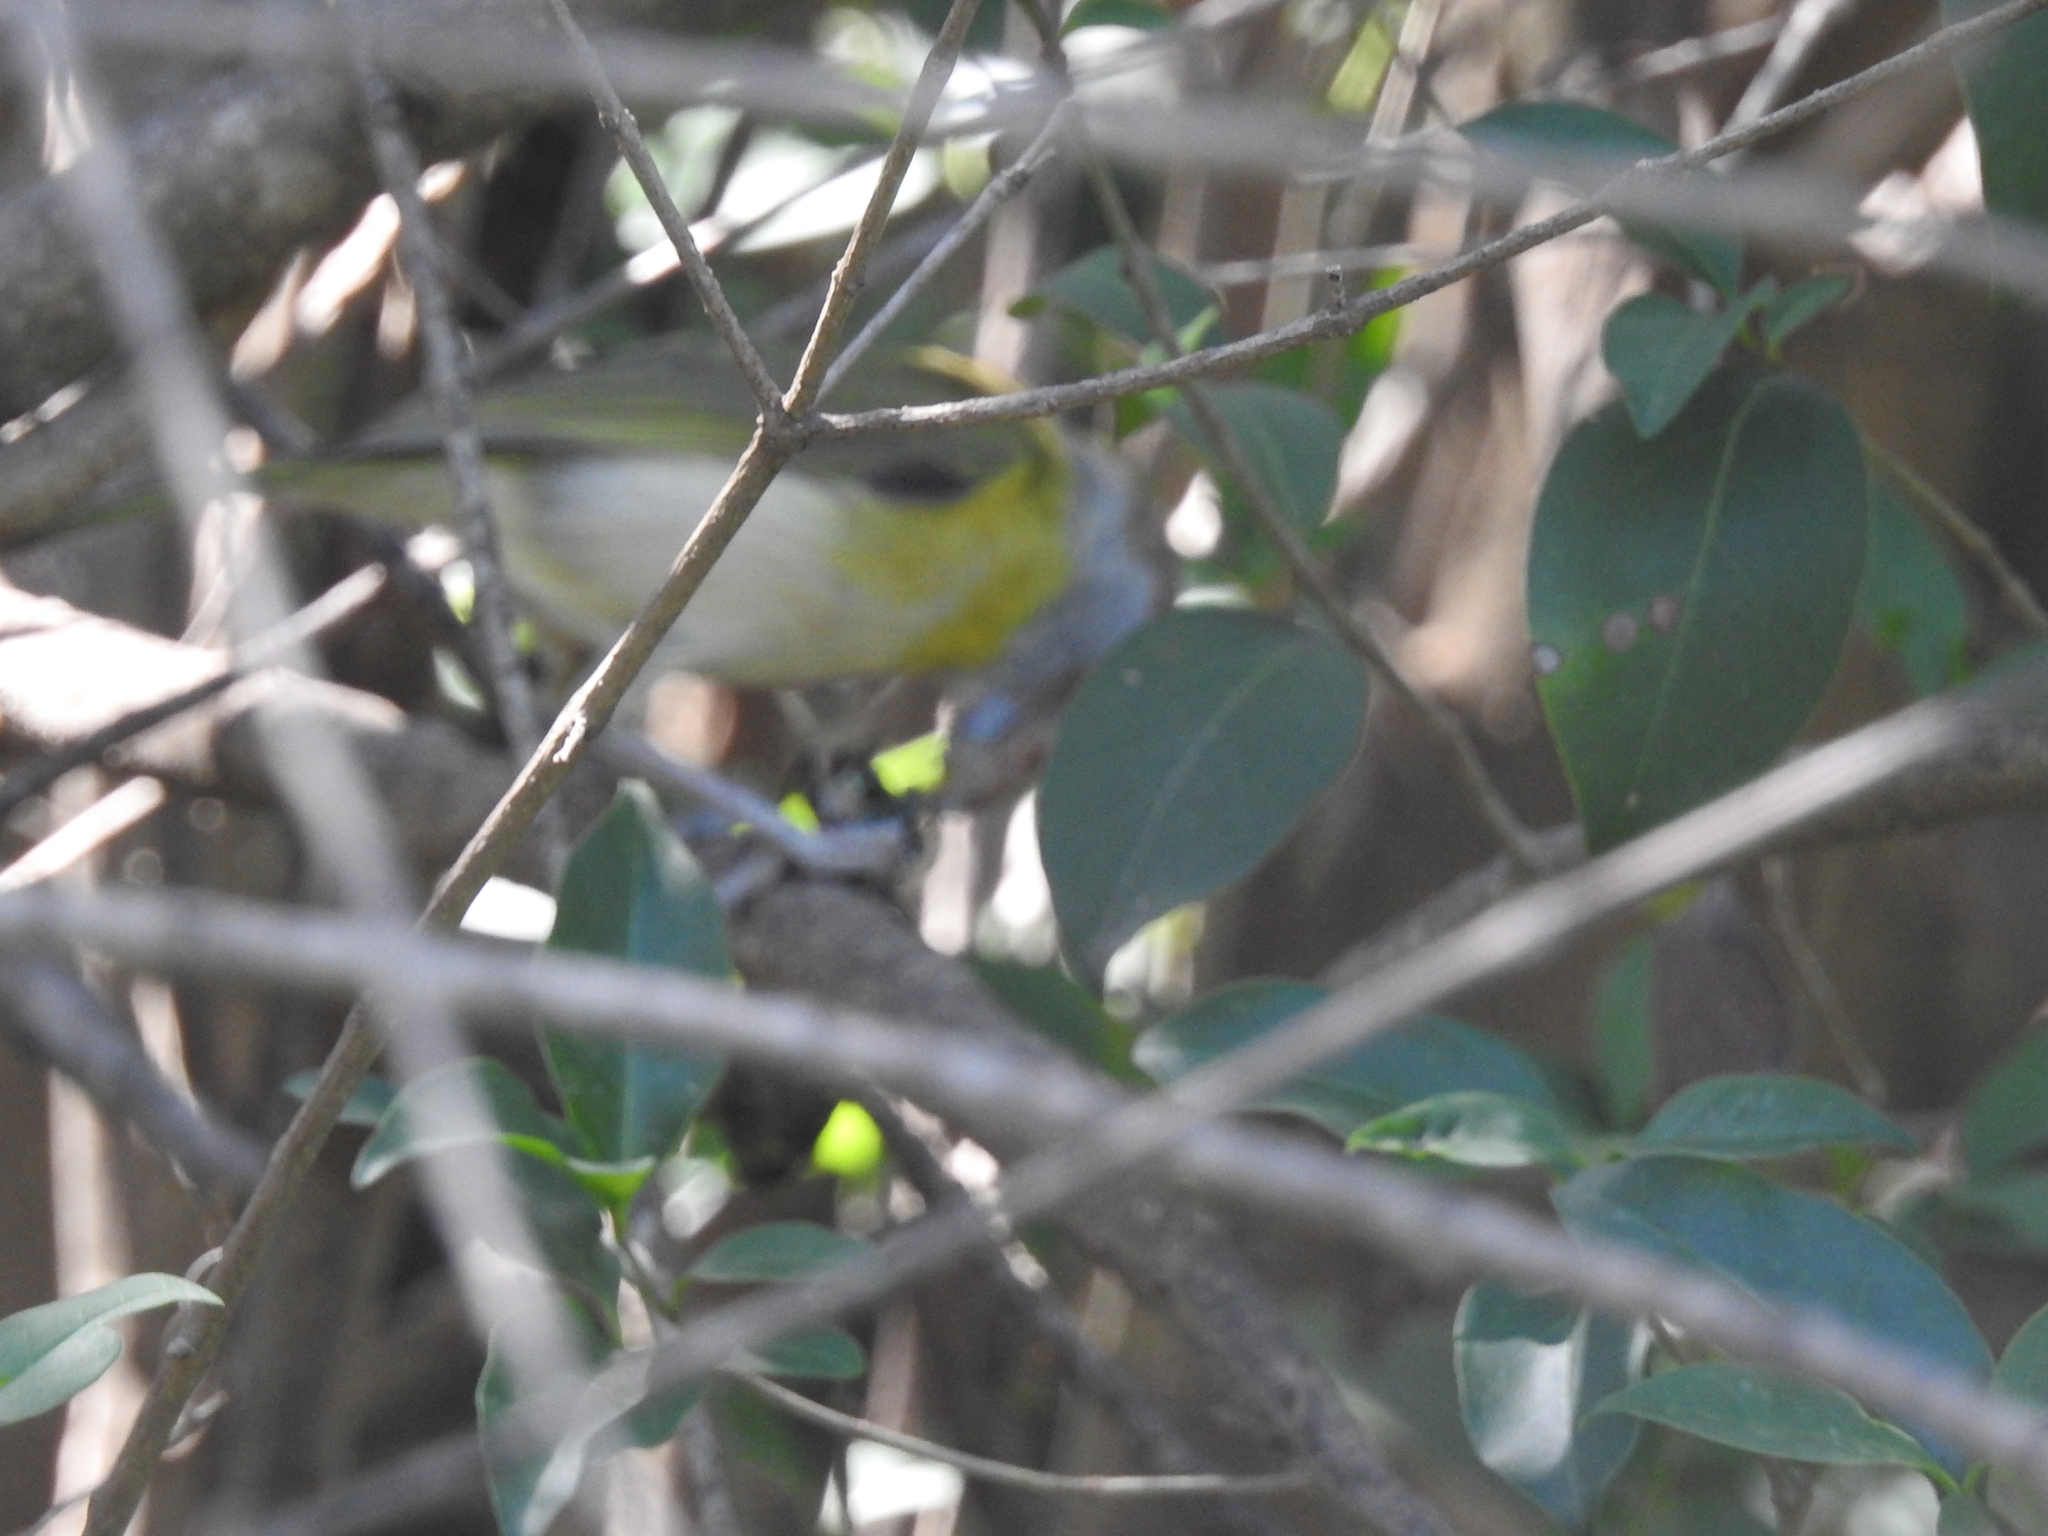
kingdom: Animalia
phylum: Chordata
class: Aves
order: Passeriformes
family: Vireonidae
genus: Cyclarhis
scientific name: Cyclarhis gujanensis
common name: Rufous-browed peppershrike
